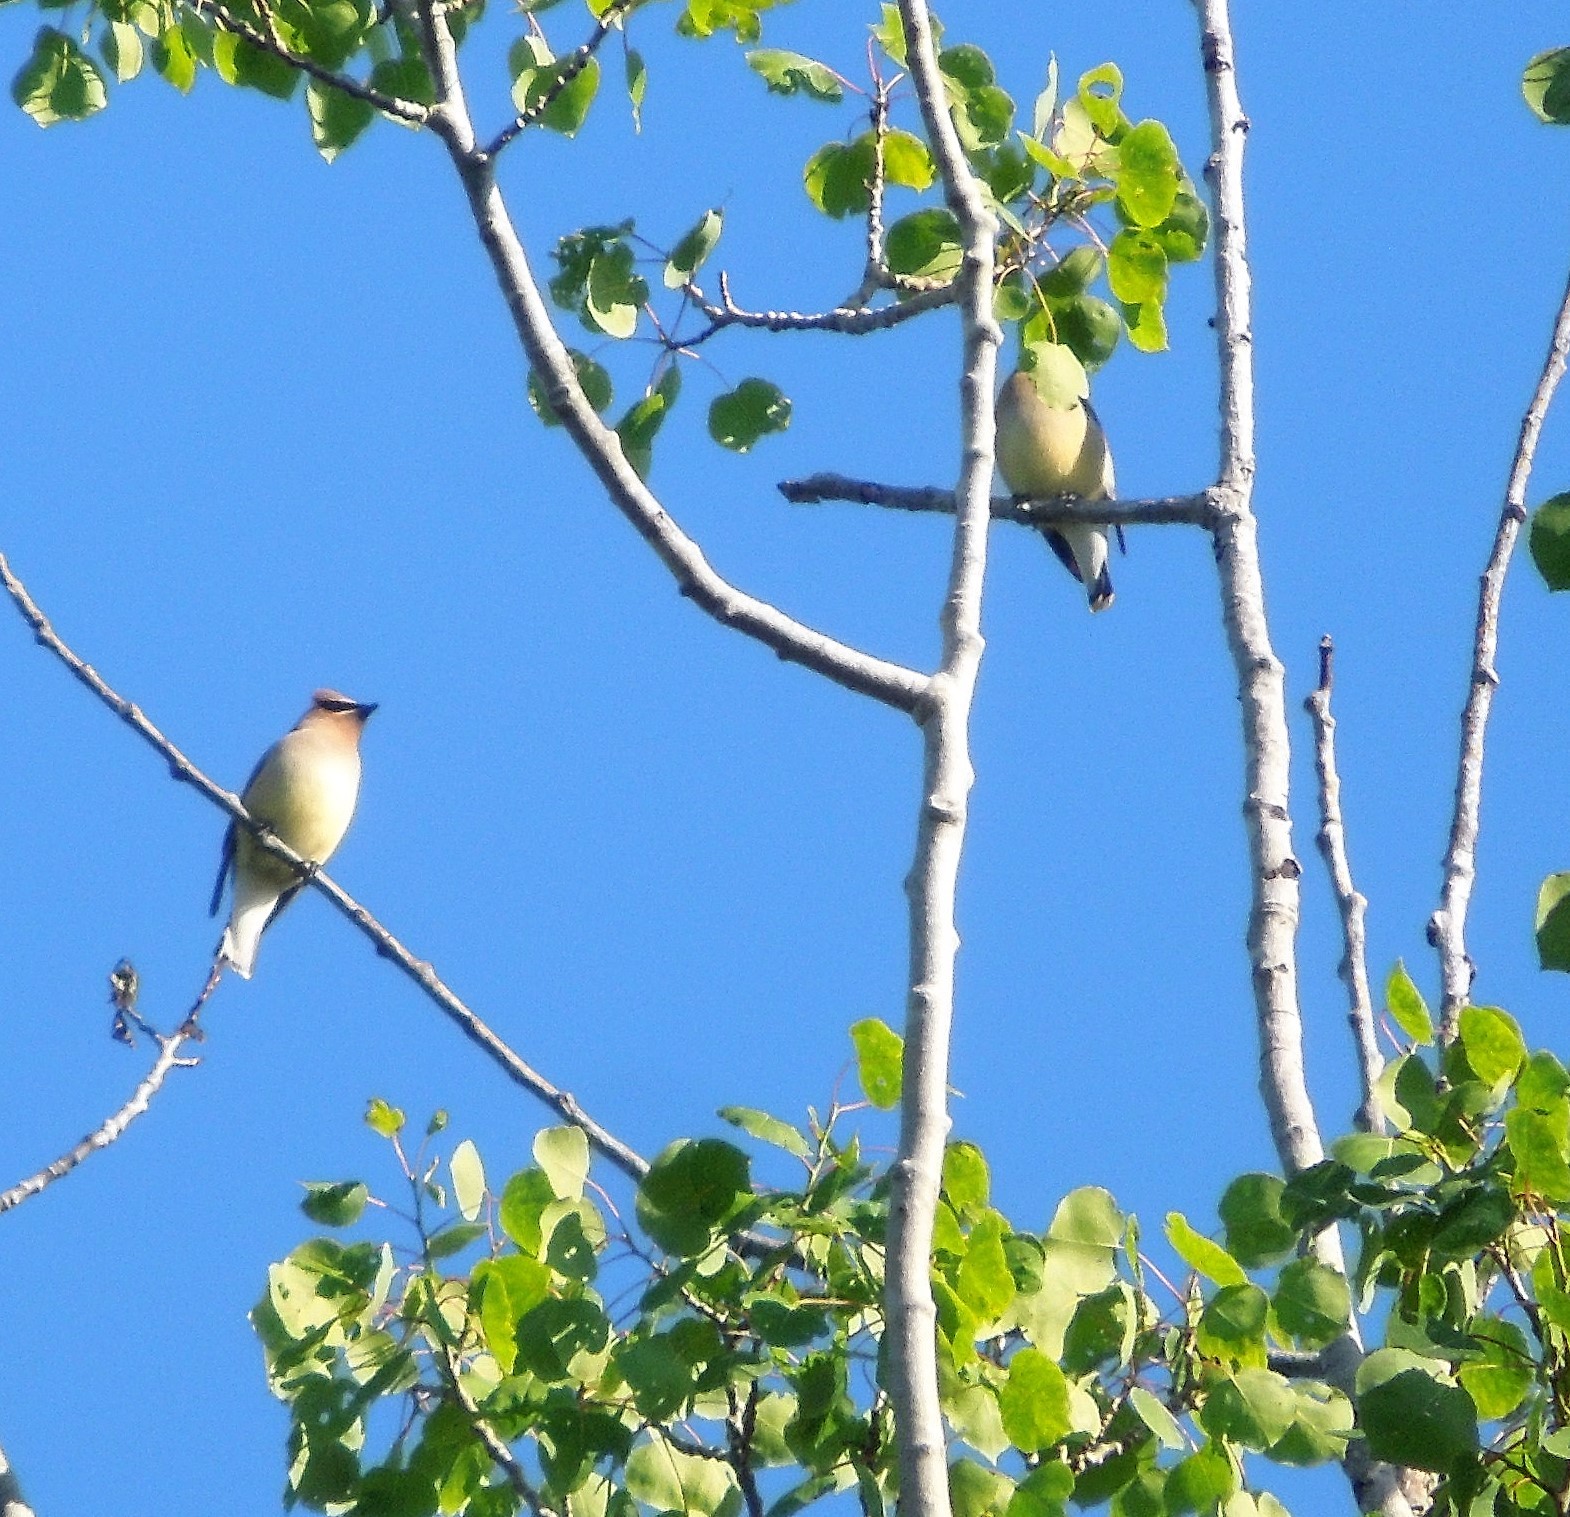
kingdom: Animalia
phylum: Chordata
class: Aves
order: Passeriformes
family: Bombycillidae
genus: Bombycilla
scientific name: Bombycilla cedrorum
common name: Cedar waxwing
